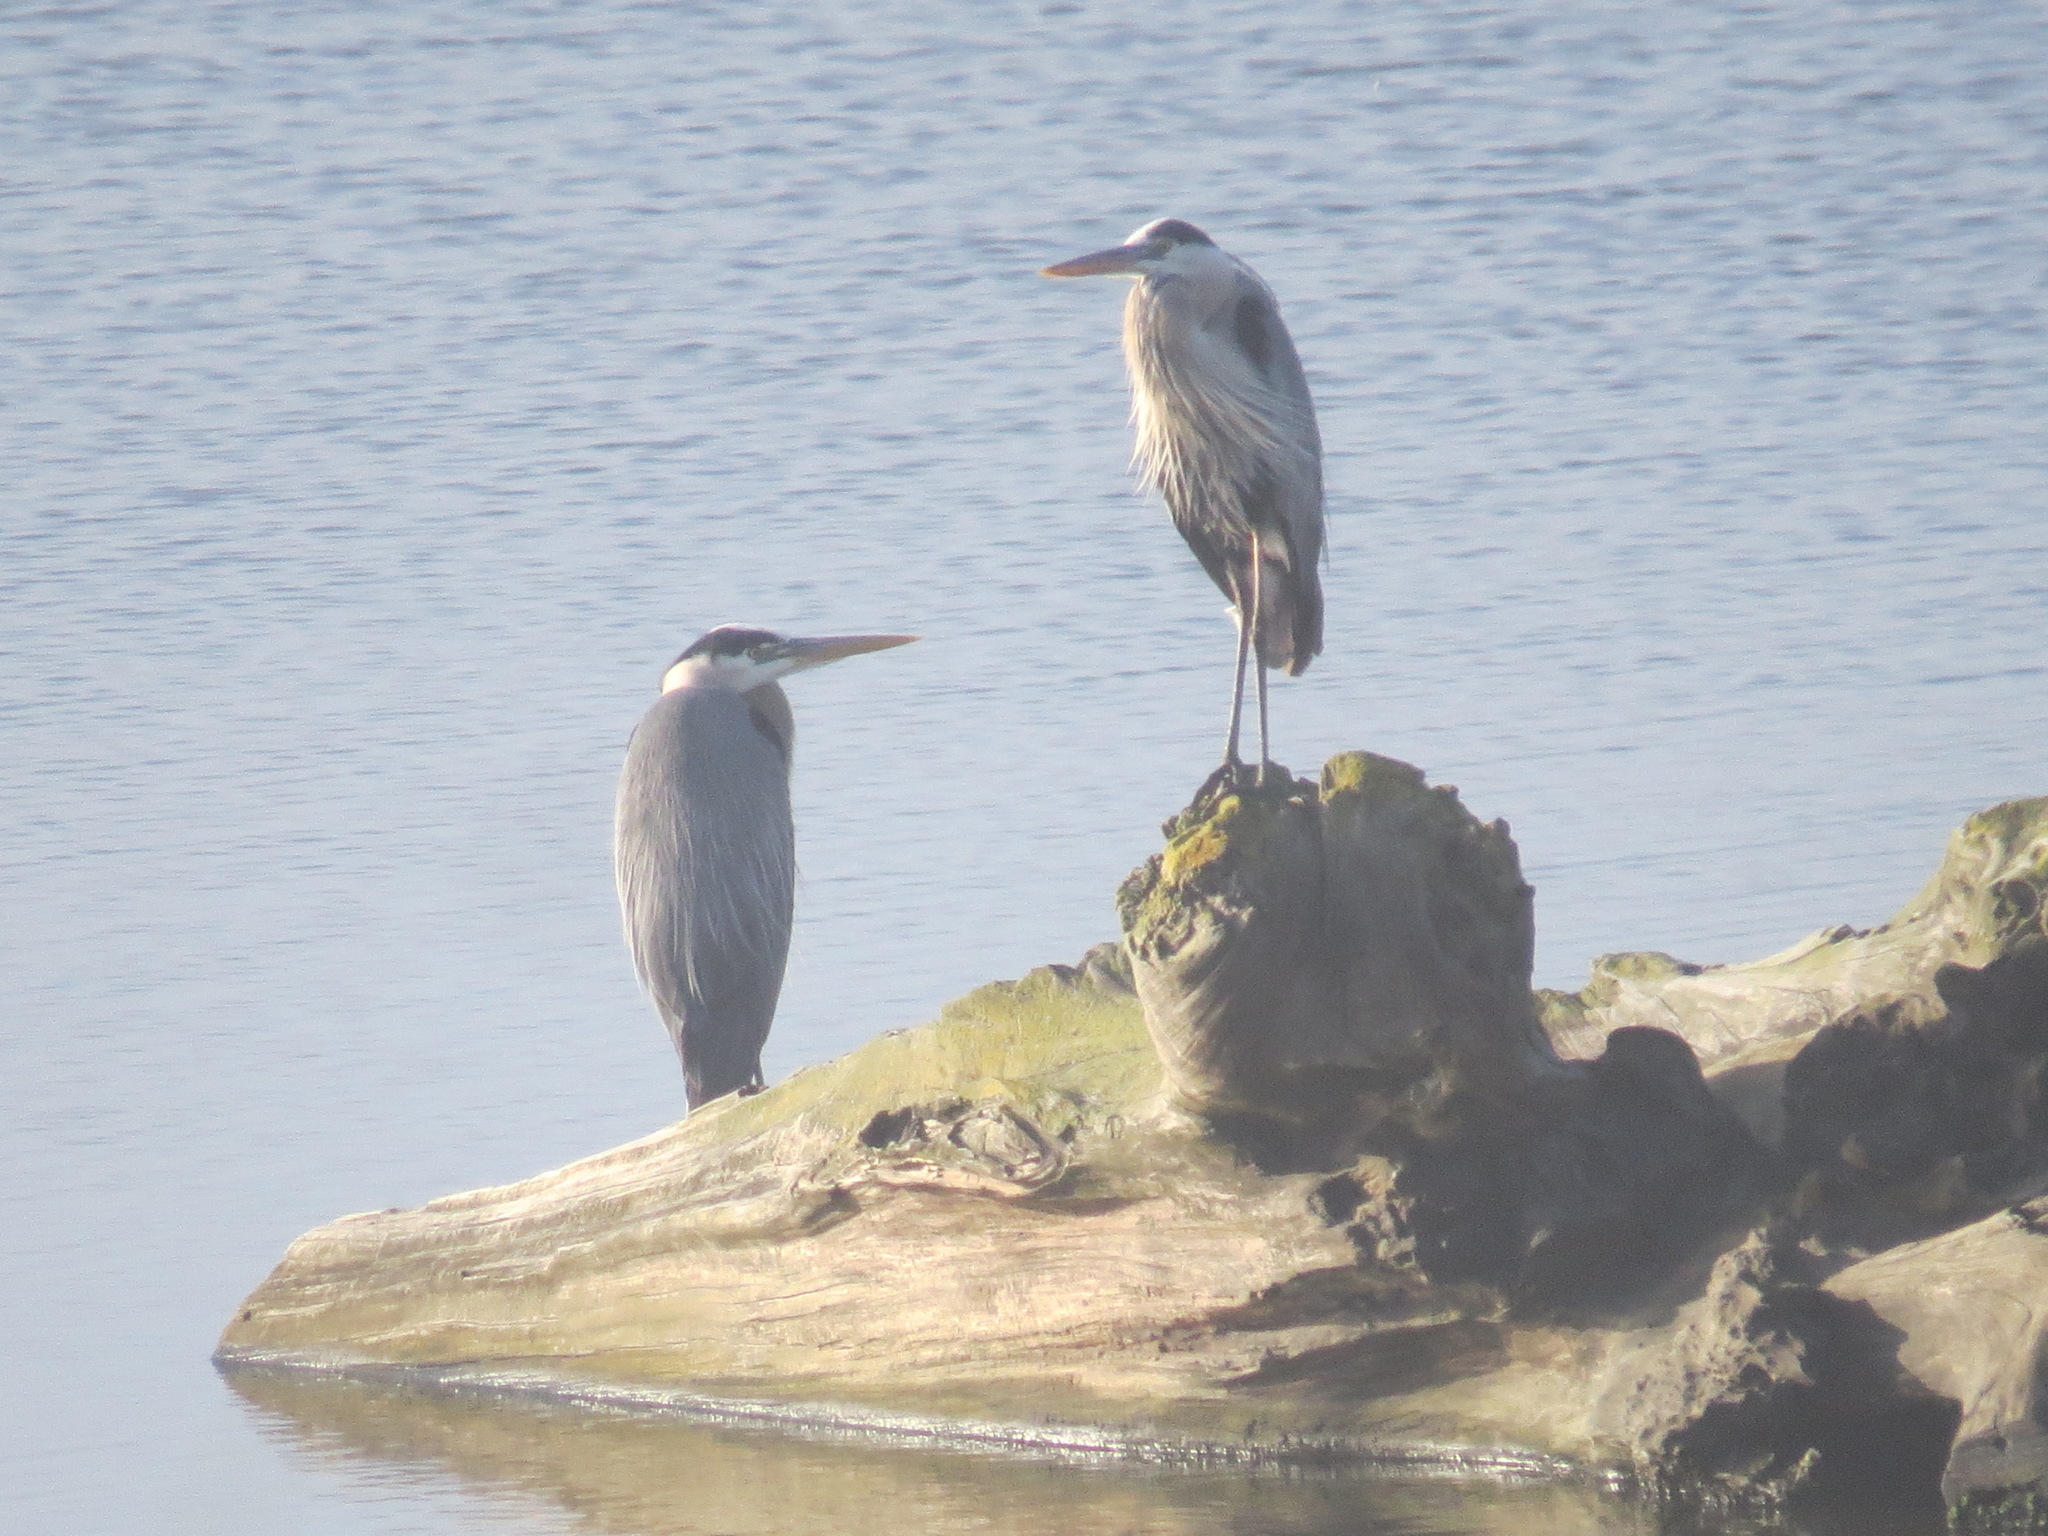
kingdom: Animalia
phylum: Chordata
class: Aves
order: Pelecaniformes
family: Ardeidae
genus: Ardea
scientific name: Ardea herodias
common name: Great blue heron
